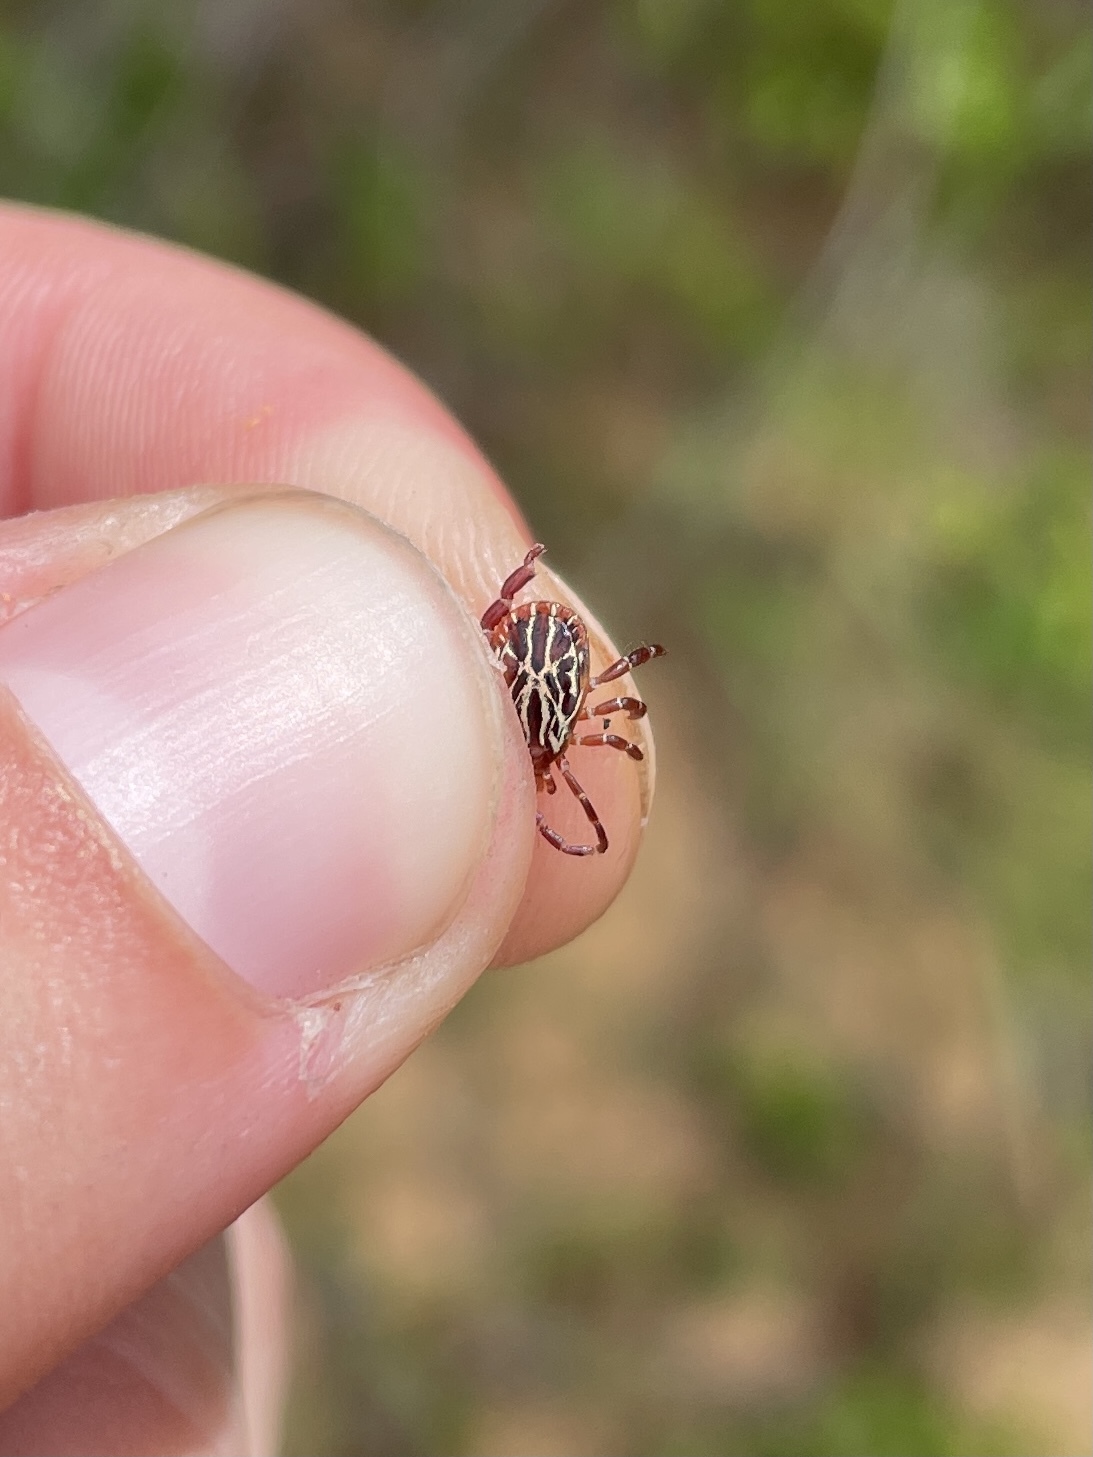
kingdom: Animalia
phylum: Arthropoda
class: Arachnida
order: Ixodida
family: Ixodidae
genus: Amblyomma
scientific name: Amblyomma maculatum
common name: Gulf coast tick
